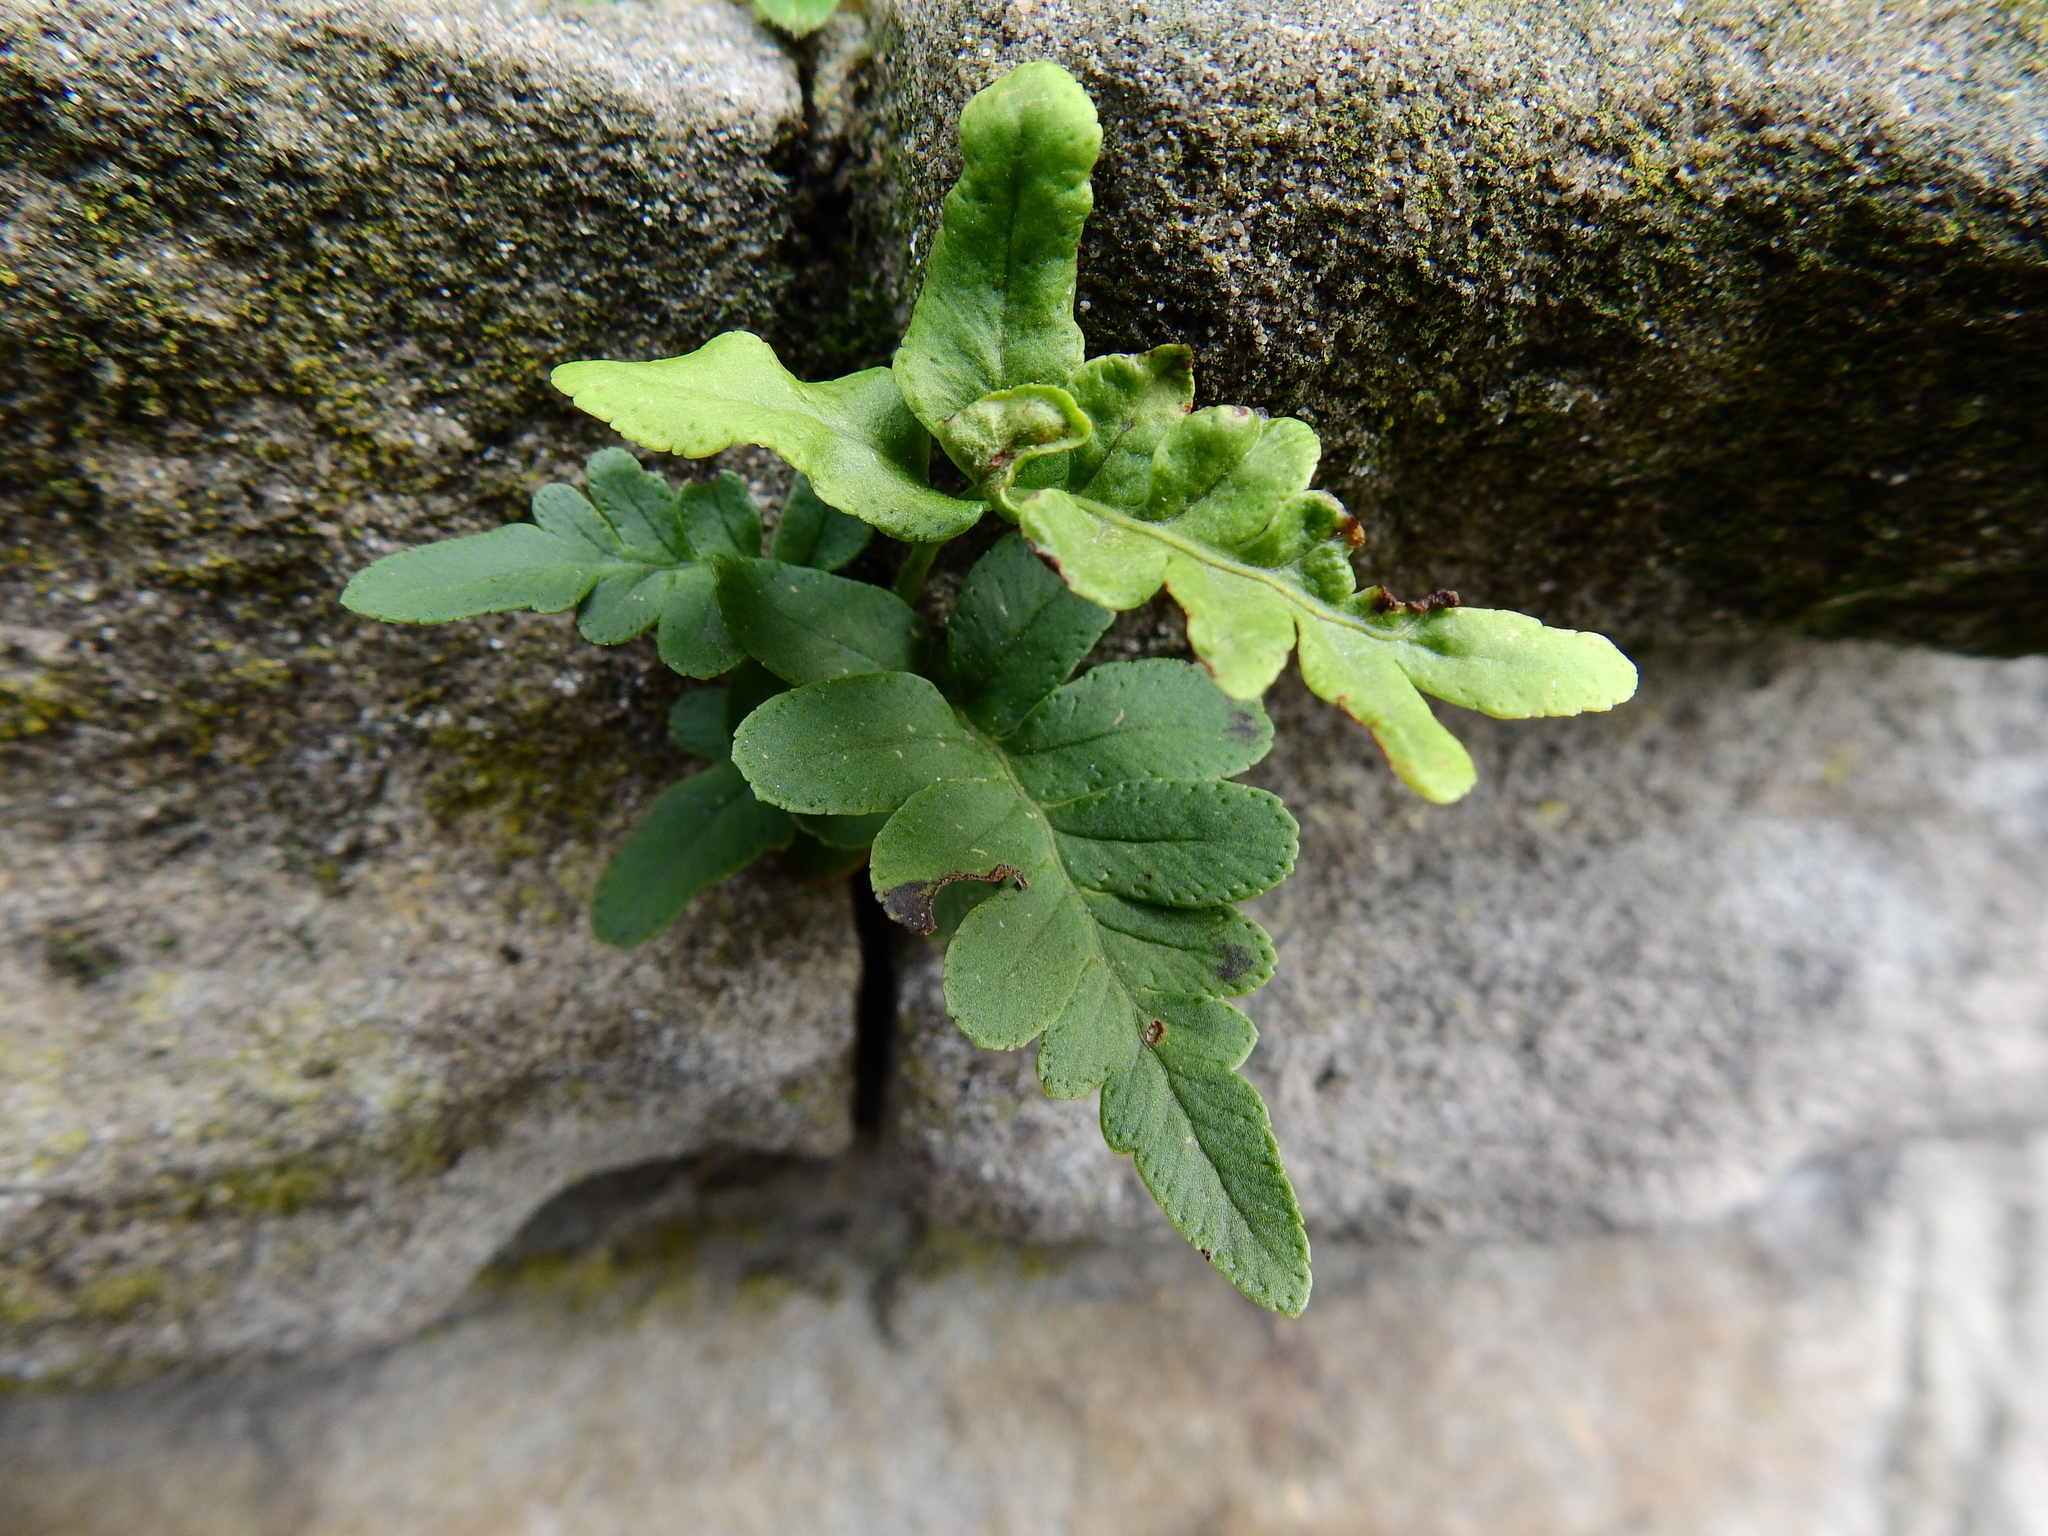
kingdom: Plantae
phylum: Tracheophyta
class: Polypodiopsida
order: Polypodiales
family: Polypodiaceae
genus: Polypodium
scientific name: Polypodium vulgare
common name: Common polypody
